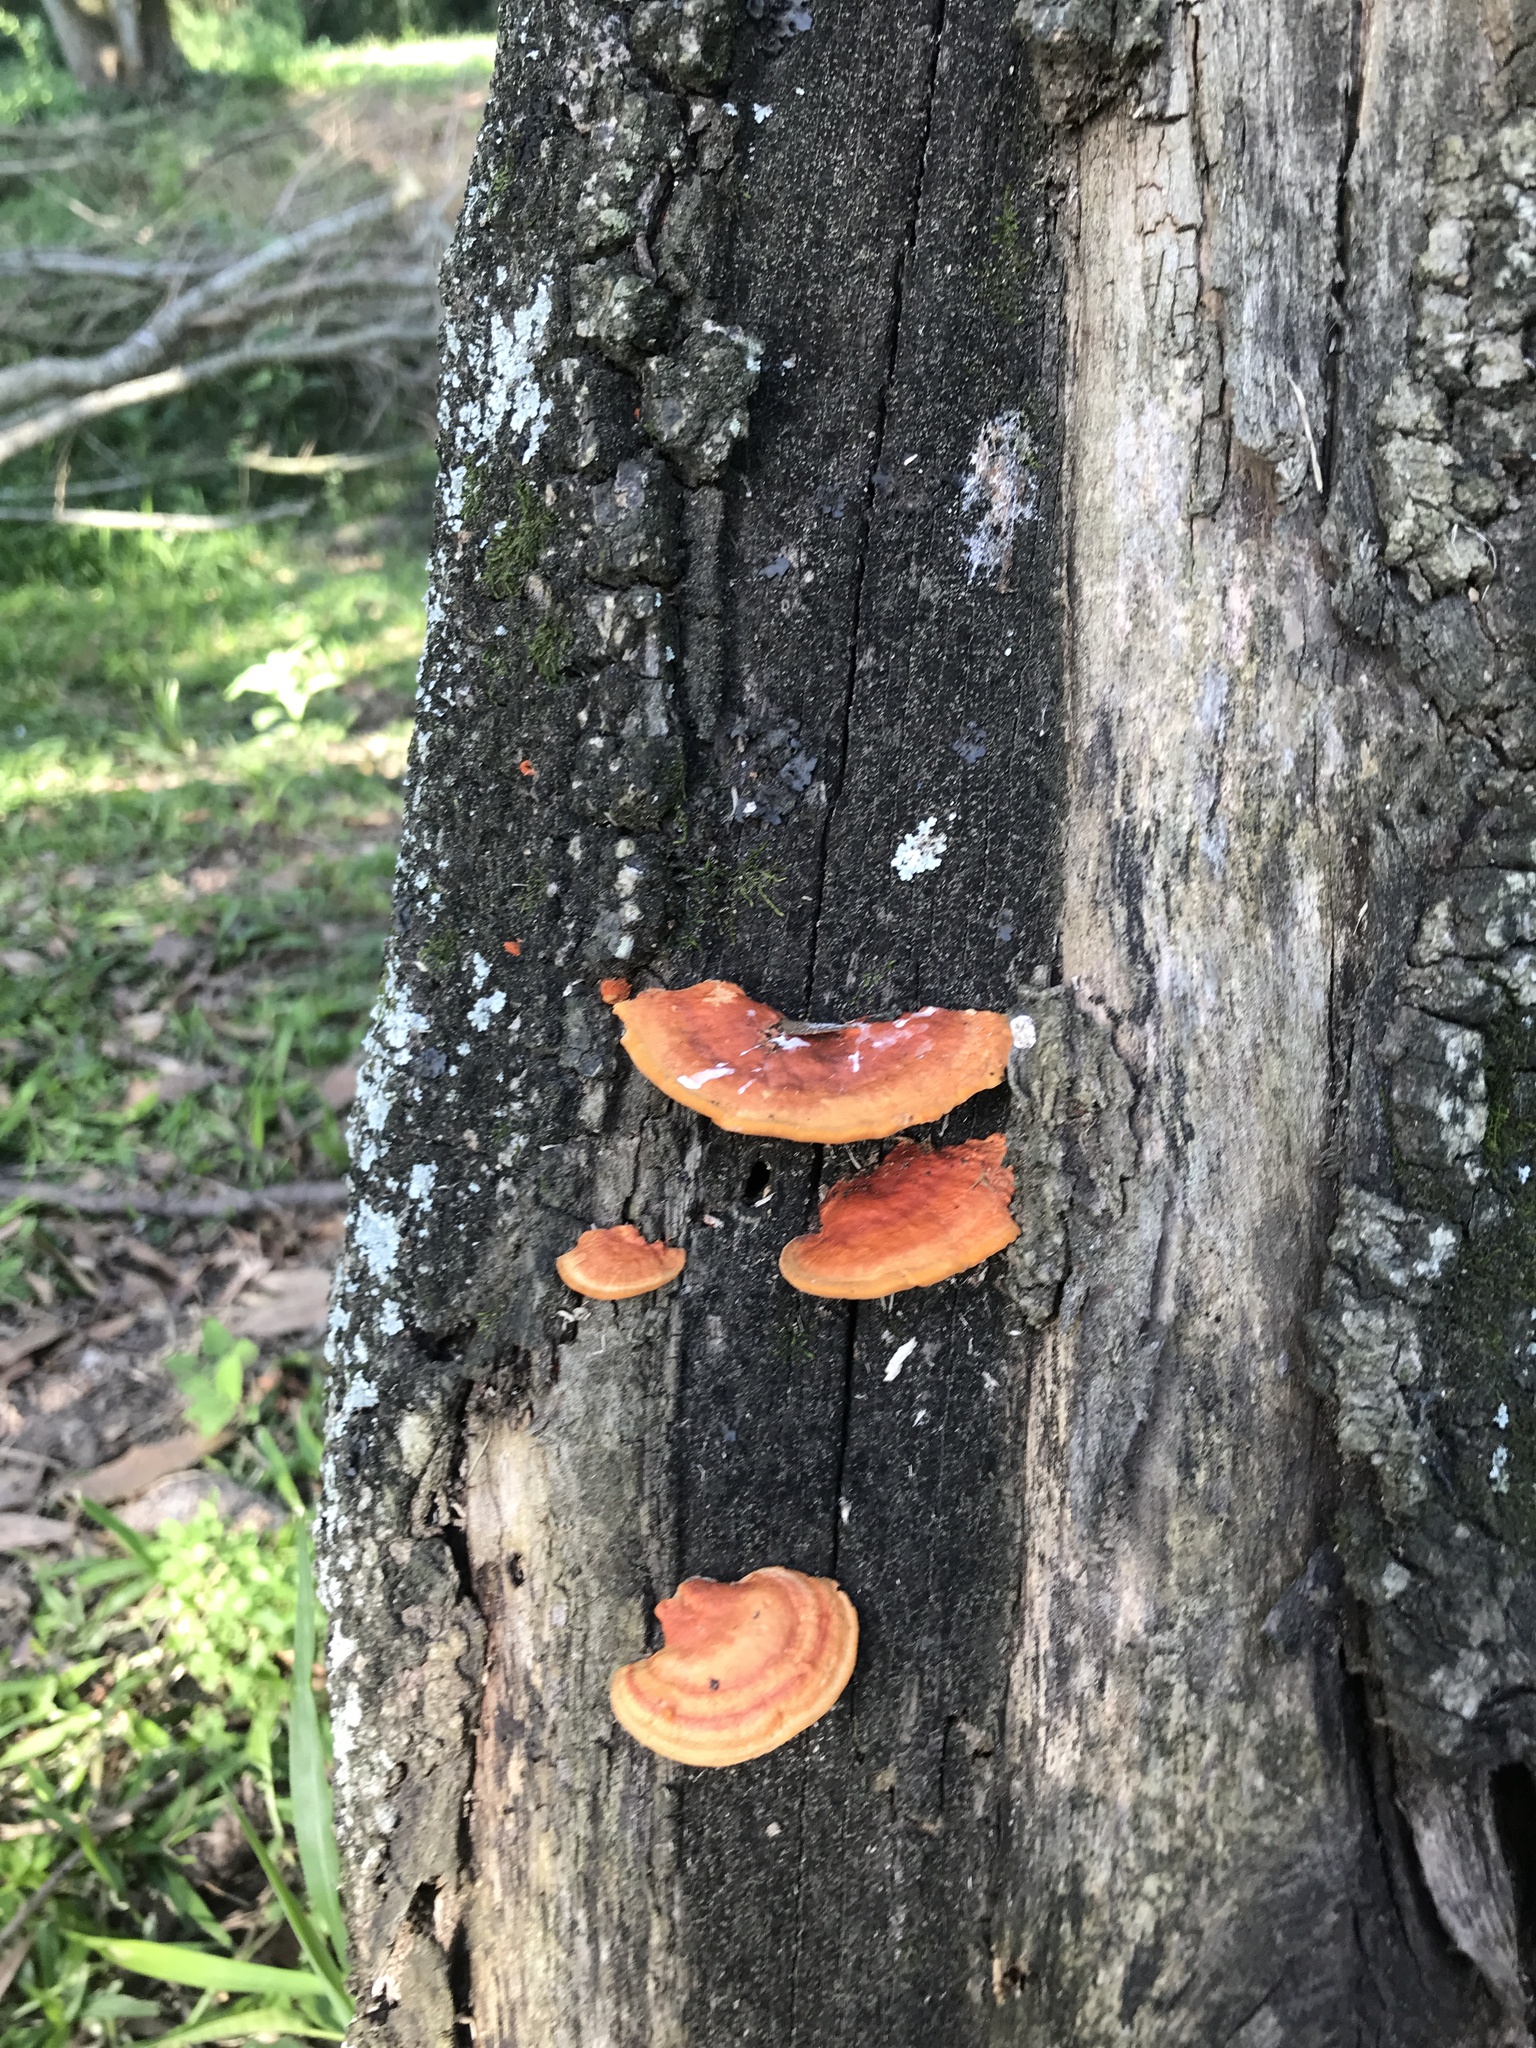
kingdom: Fungi
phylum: Basidiomycota
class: Agaricomycetes
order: Polyporales
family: Polyporaceae
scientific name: Polyporaceae
